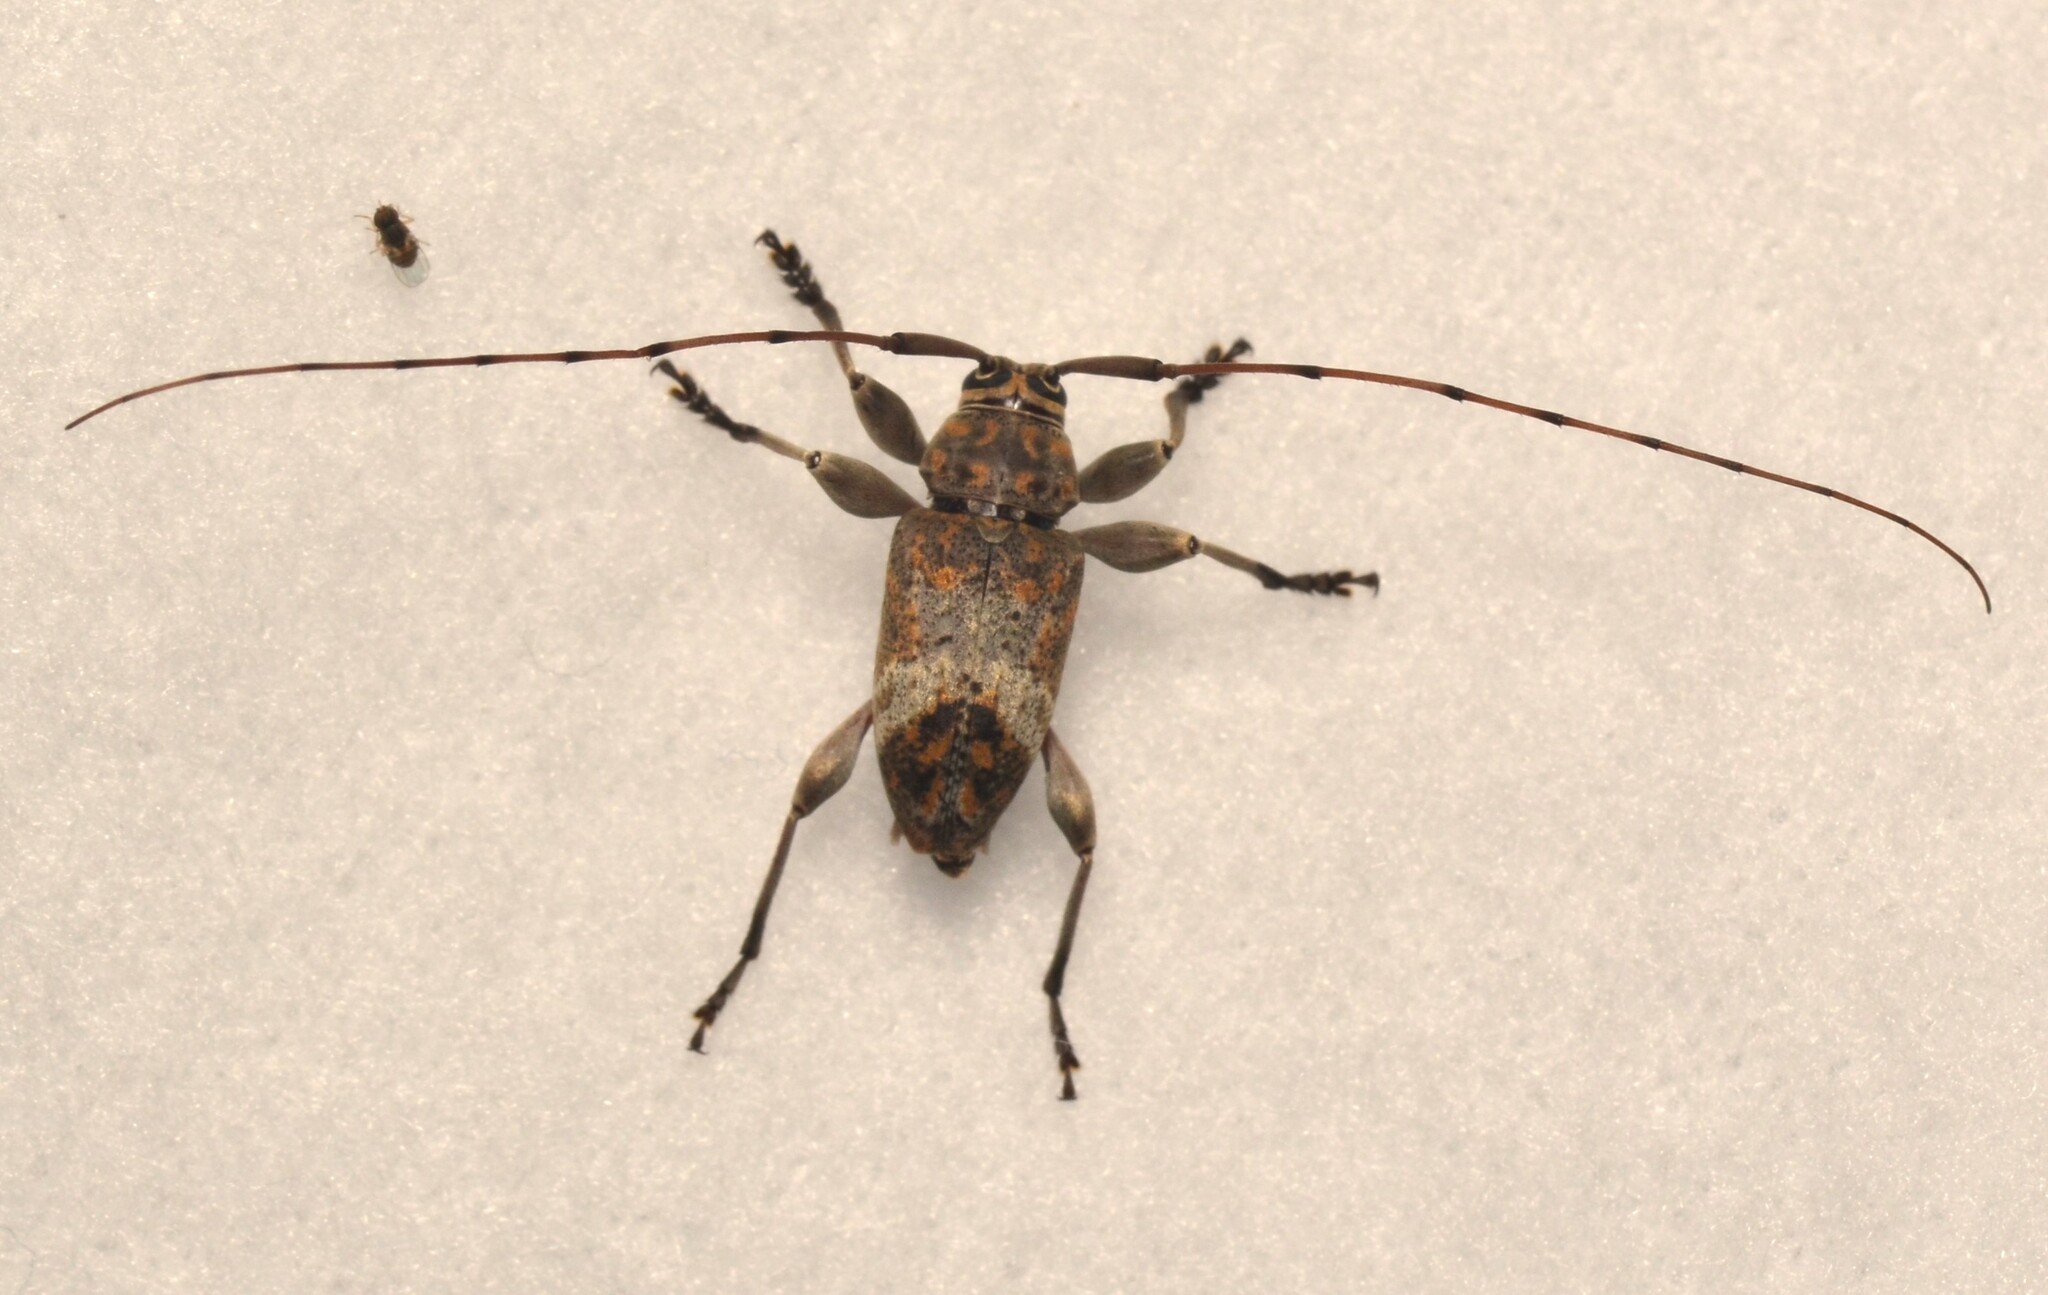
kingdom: Animalia
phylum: Arthropoda
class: Insecta
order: Coleoptera
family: Cerambycidae
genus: Atrypanius
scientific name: Atrypanius implexus
